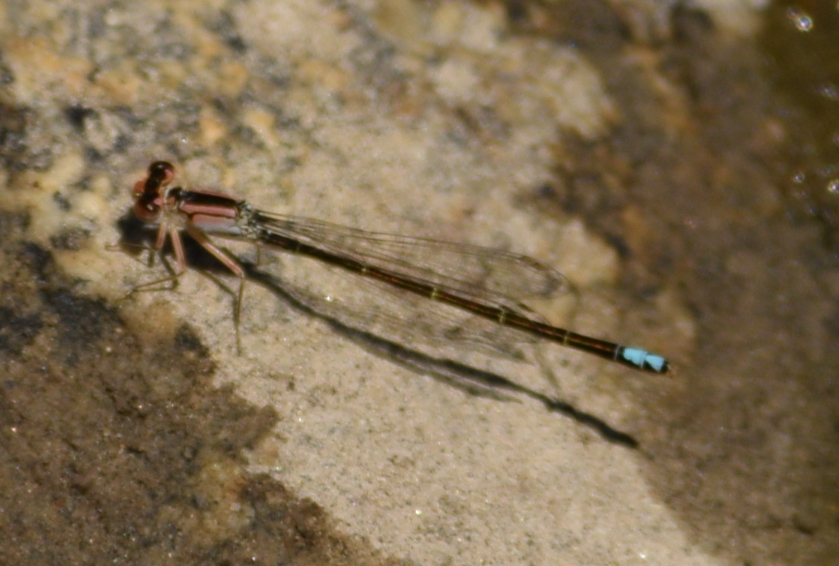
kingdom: Animalia
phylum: Arthropoda
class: Insecta
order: Odonata
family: Coenagrionidae
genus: Ischnura
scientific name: Ischnura denticollis
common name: Black-fronted forktail
